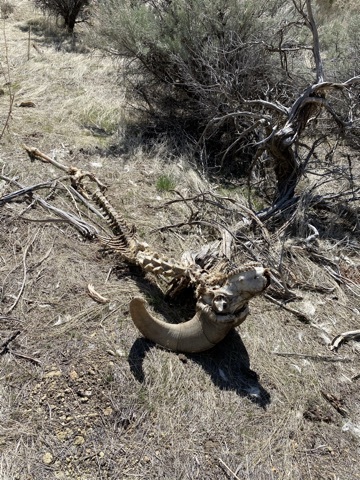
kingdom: Animalia
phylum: Chordata
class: Mammalia
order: Artiodactyla
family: Bovidae
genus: Ovis
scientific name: Ovis canadensis
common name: Bighorn sheep
